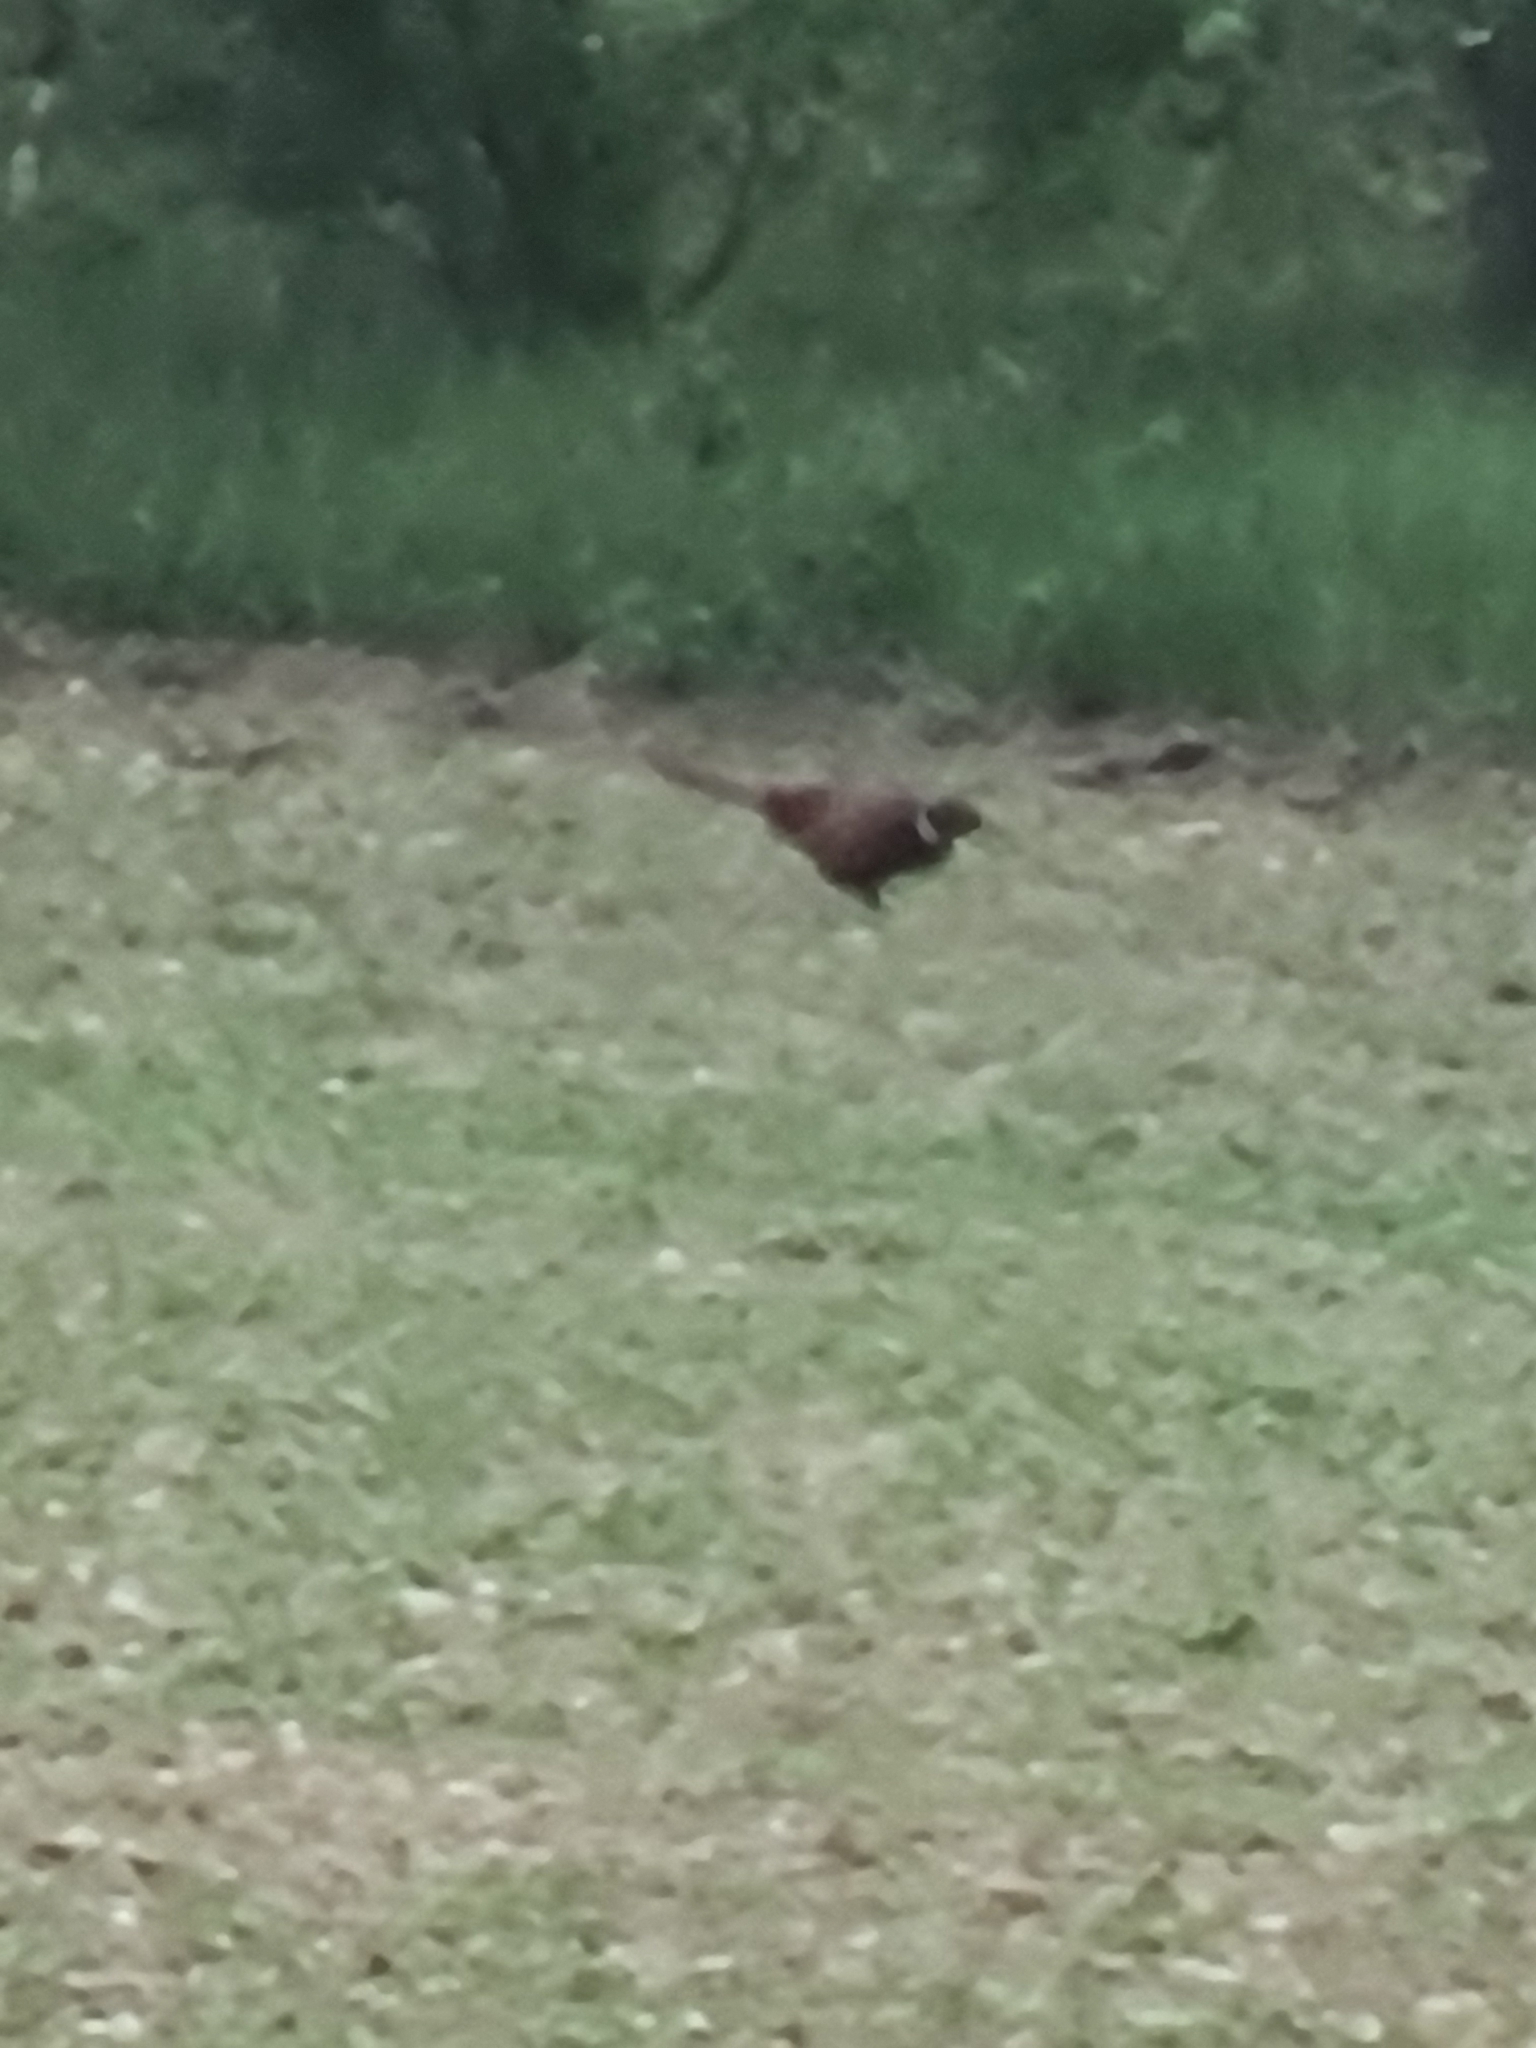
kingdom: Animalia
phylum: Chordata
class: Aves
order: Galliformes
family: Phasianidae
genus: Phasianus
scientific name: Phasianus colchicus
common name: Common pheasant
